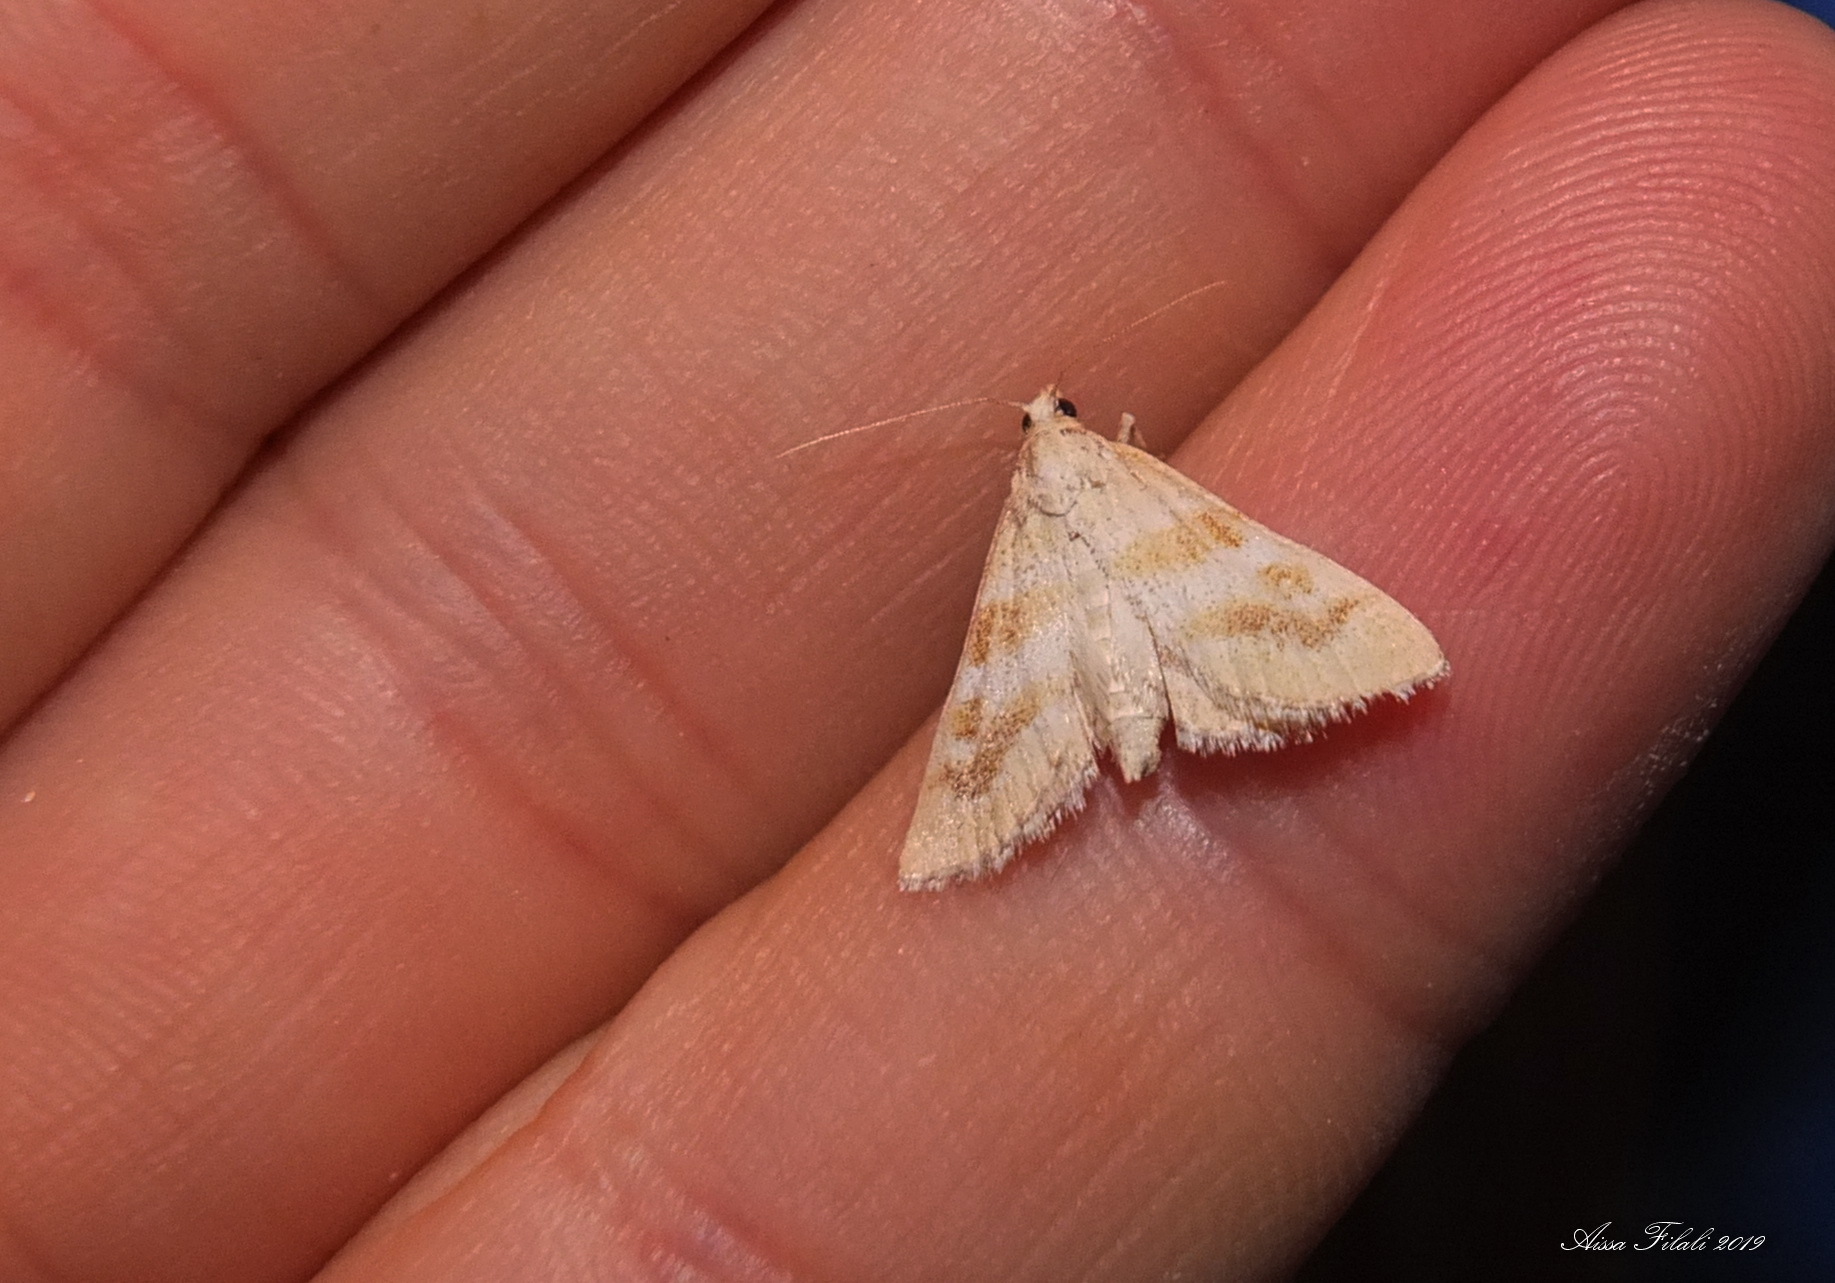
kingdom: Animalia
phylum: Arthropoda
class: Insecta
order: Lepidoptera
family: Crambidae
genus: Metasia
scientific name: Metasia suppandalis
